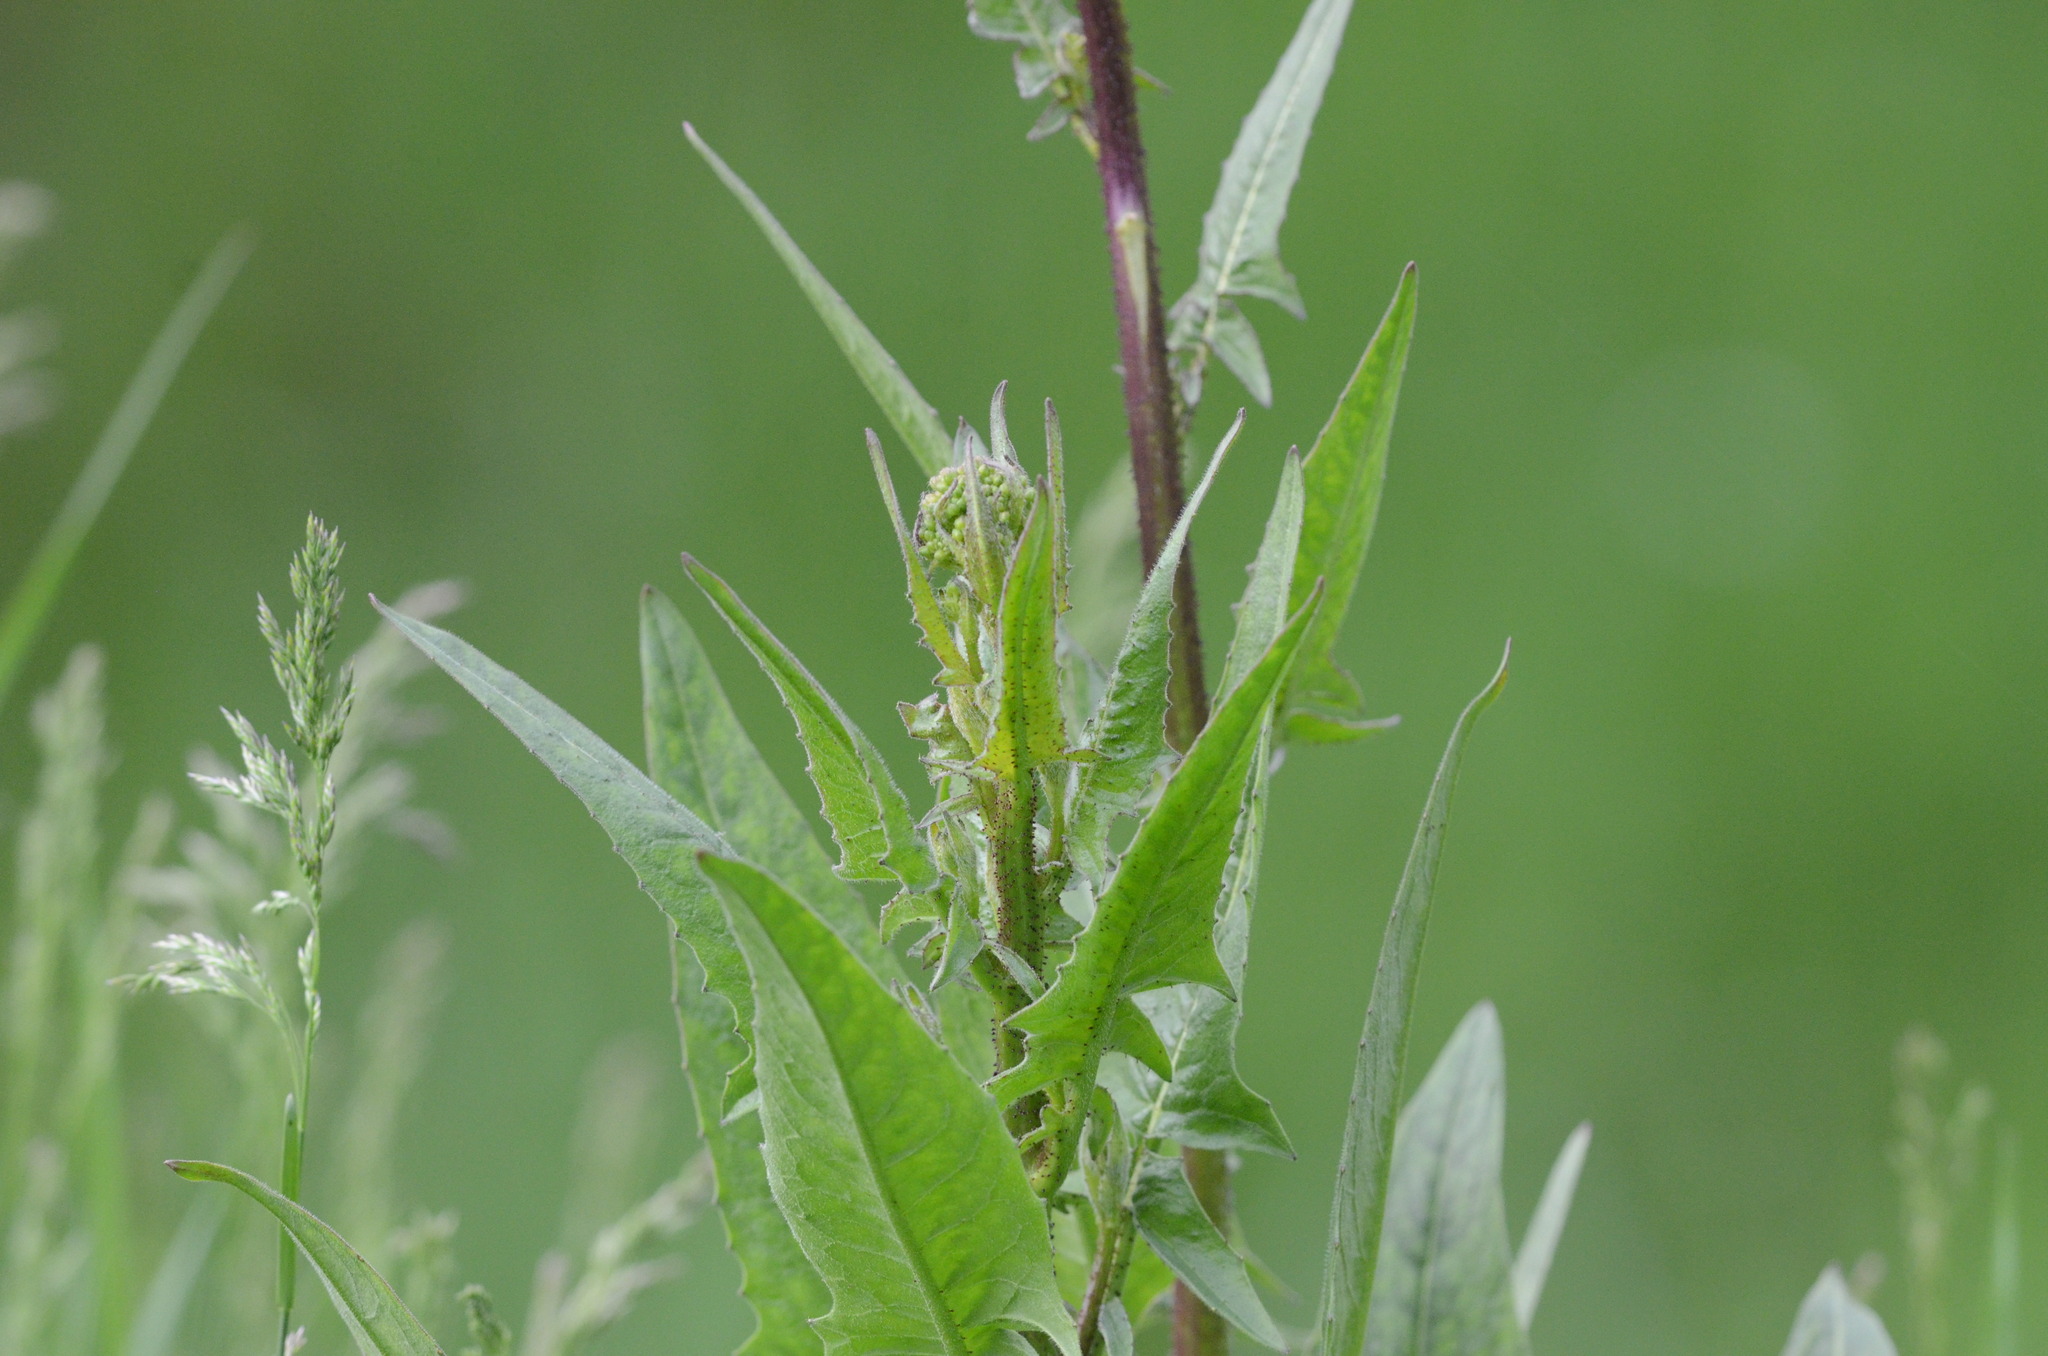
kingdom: Plantae
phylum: Tracheophyta
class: Magnoliopsida
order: Brassicales
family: Brassicaceae
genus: Bunias
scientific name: Bunias orientalis
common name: Warty-cabbage
